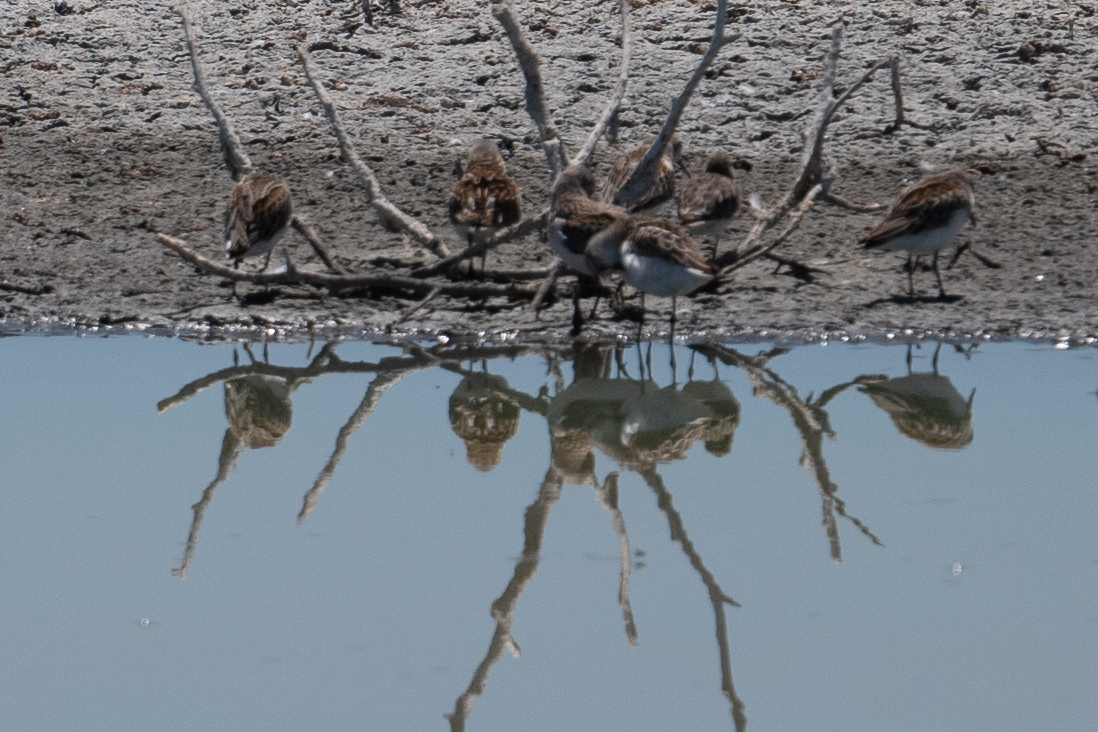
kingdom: Animalia
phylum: Chordata
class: Aves
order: Charadriiformes
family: Scolopacidae
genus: Calidris
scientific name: Calidris mauri
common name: Western sandpiper
